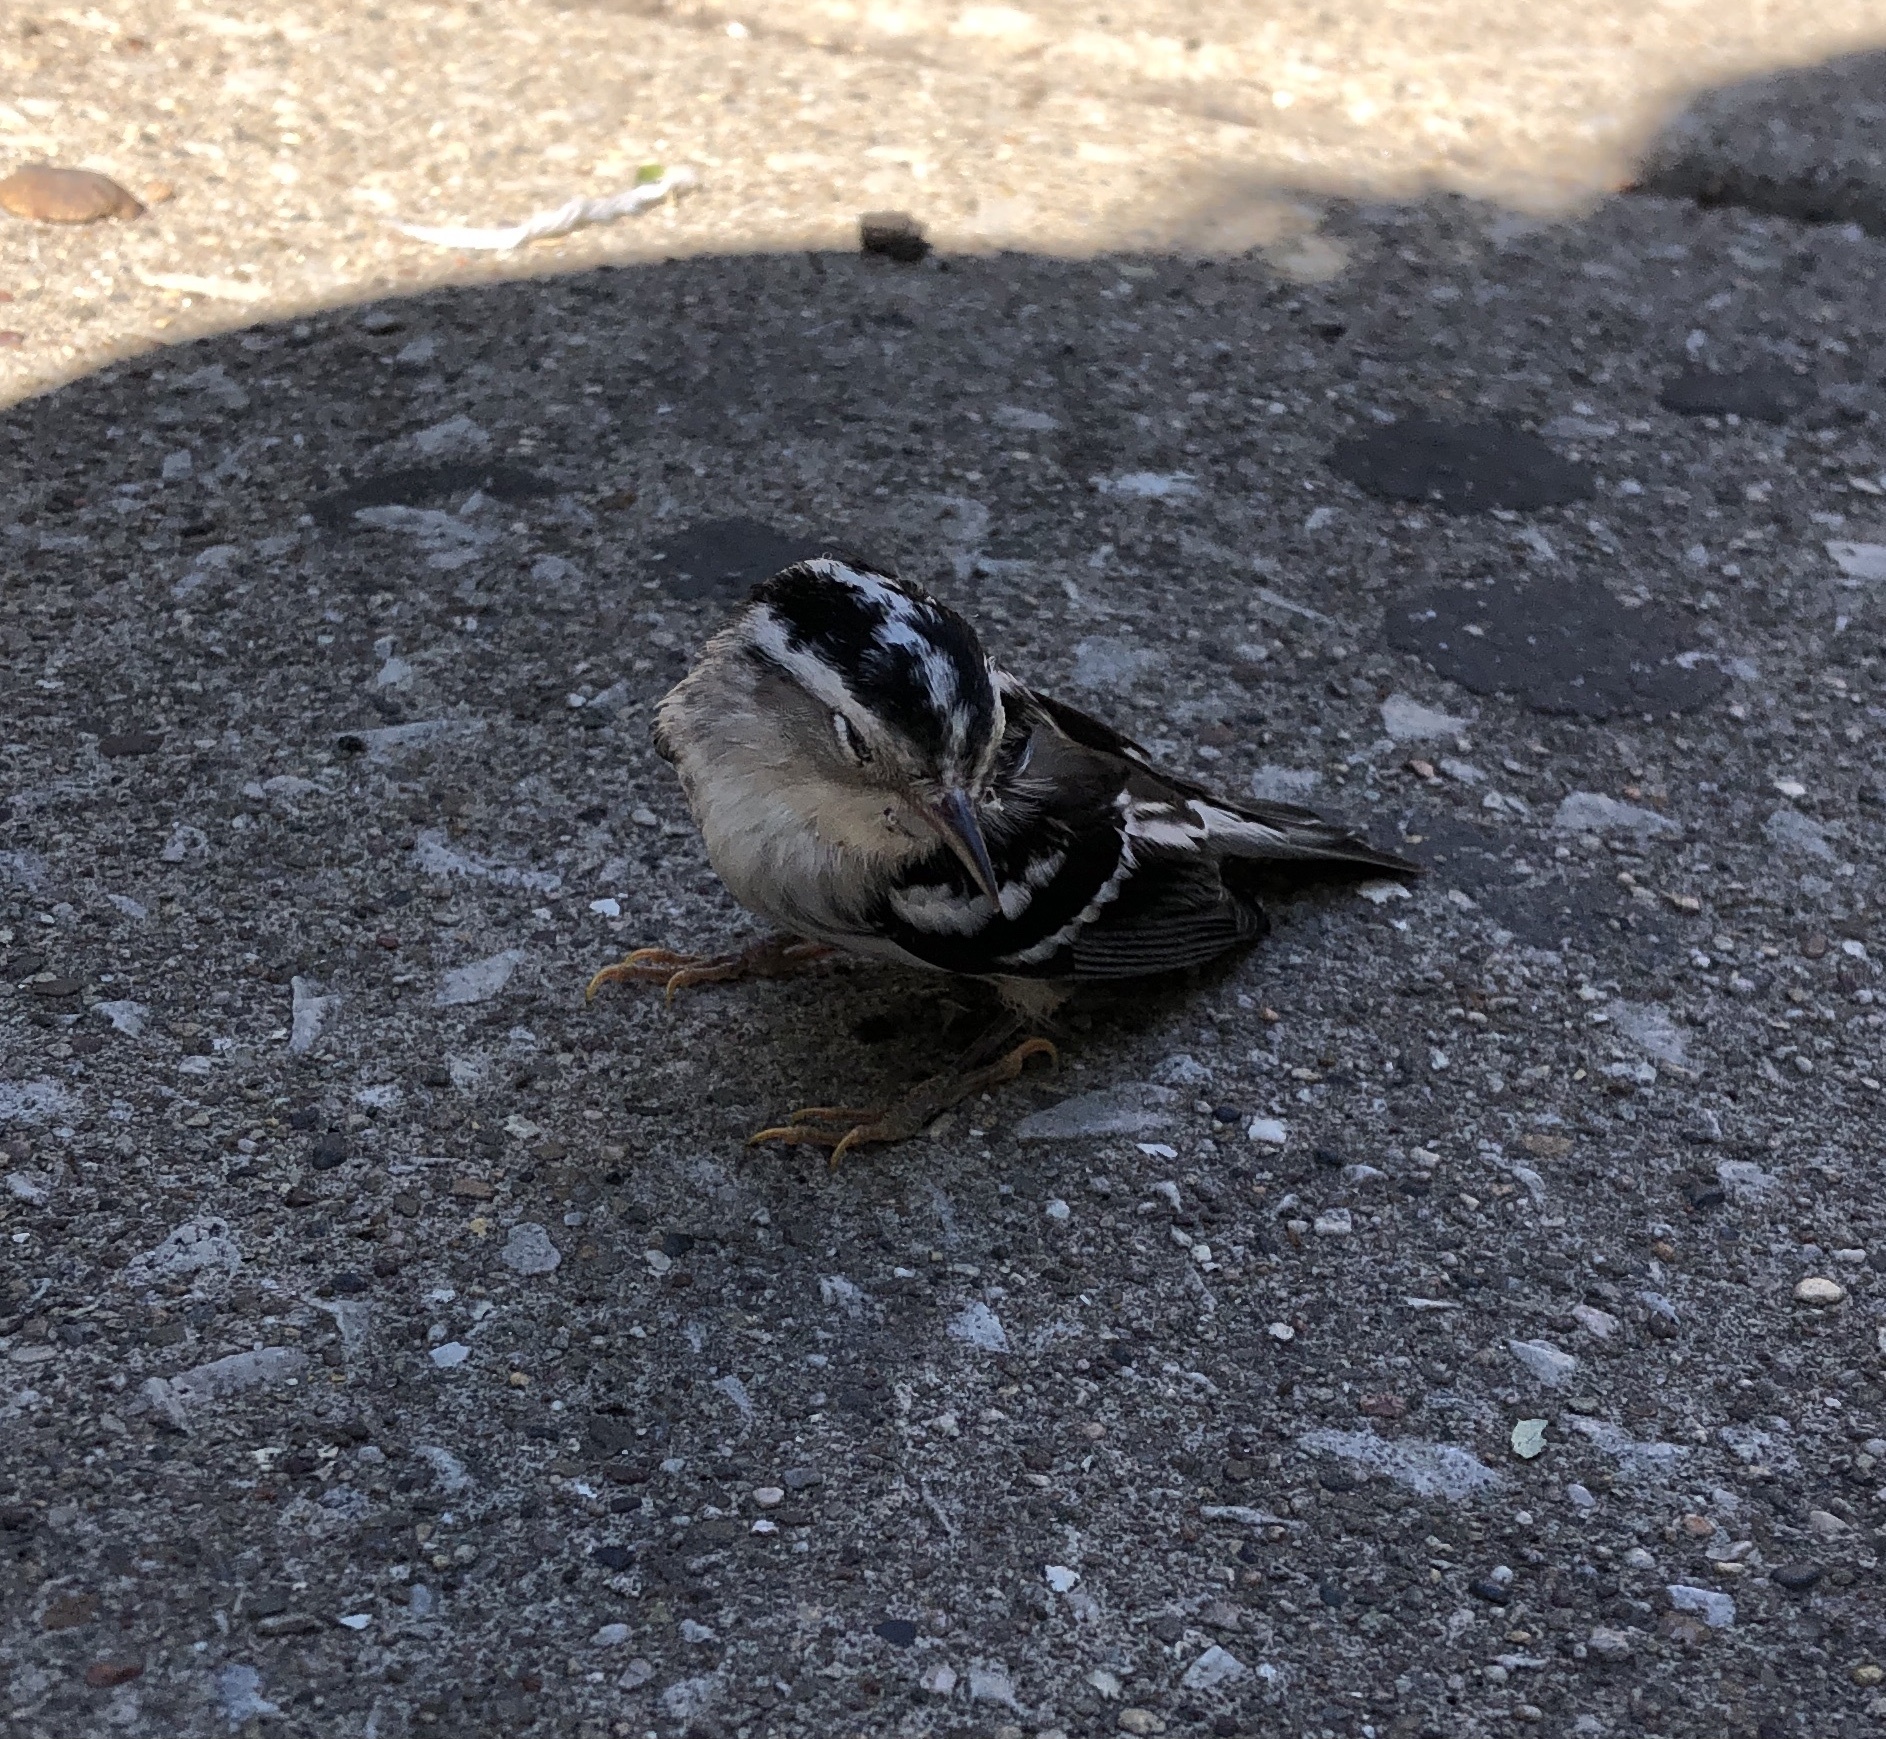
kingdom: Animalia
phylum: Chordata
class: Aves
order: Passeriformes
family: Parulidae
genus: Mniotilta
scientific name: Mniotilta varia
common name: Black-and-white warbler
